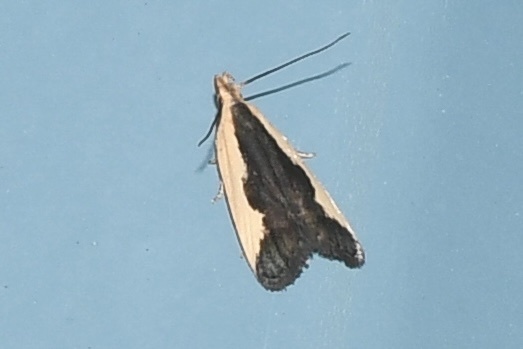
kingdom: Animalia
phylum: Arthropoda
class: Insecta
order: Lepidoptera
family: Gelechiidae
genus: Dichomeris
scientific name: Dichomeris inserrata
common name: Indented dichomeris moth
